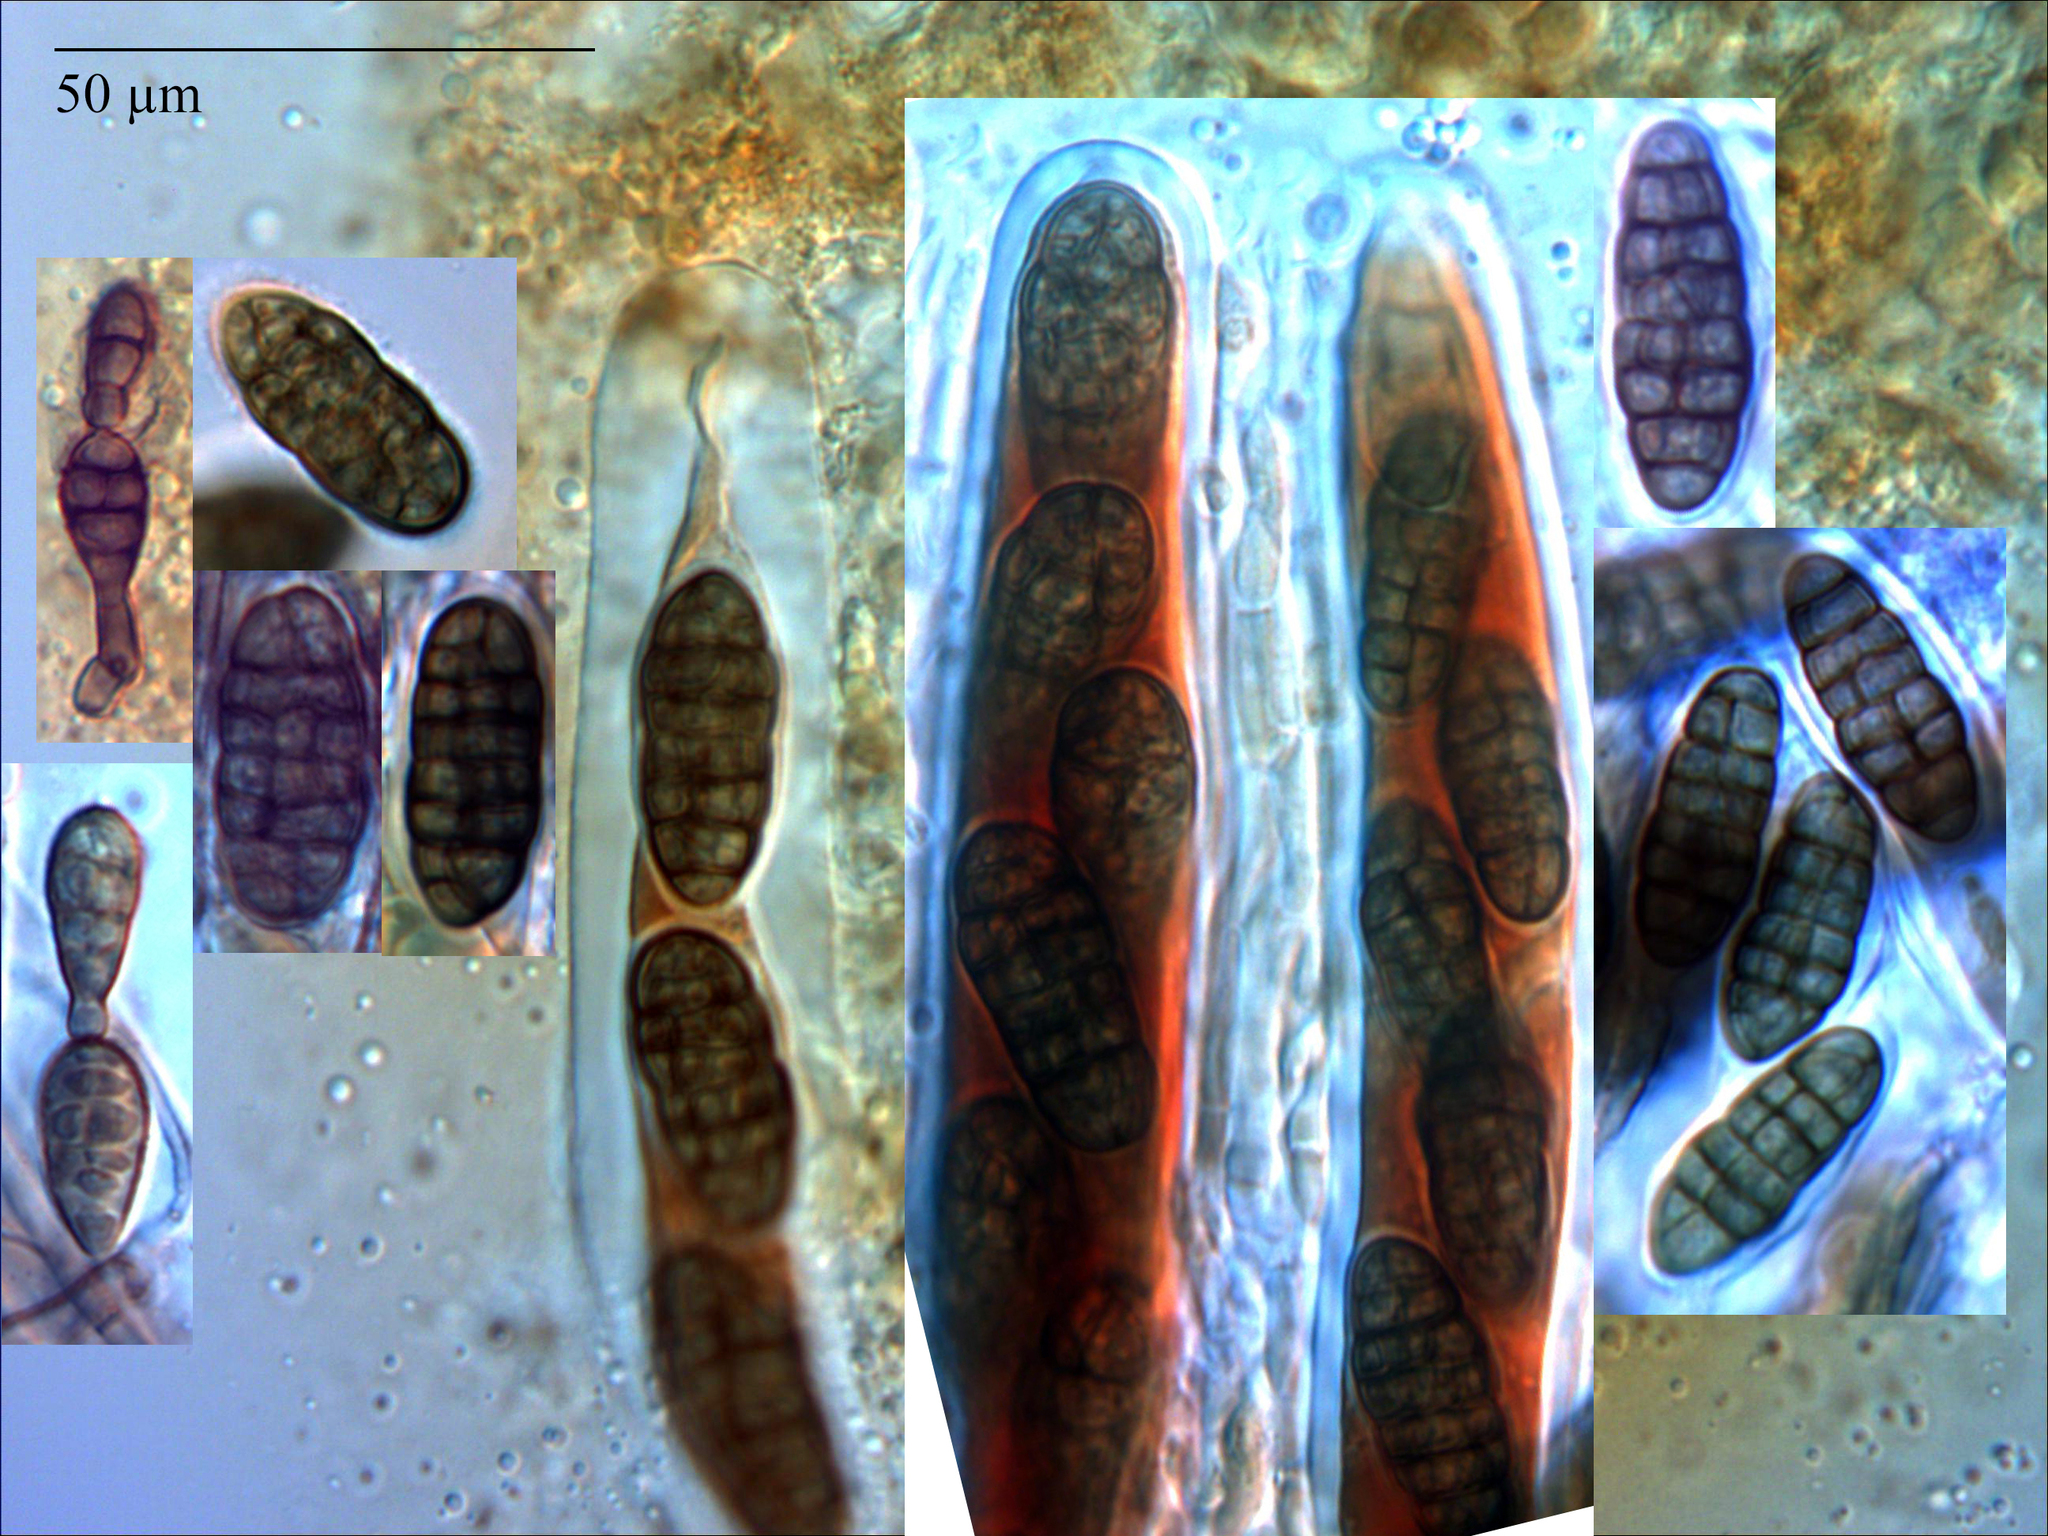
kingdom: Fungi
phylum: Ascomycota
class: Dothideomycetes
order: Pleosporales
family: Pleosporaceae
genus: Alternaria
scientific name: Alternaria infectoria
